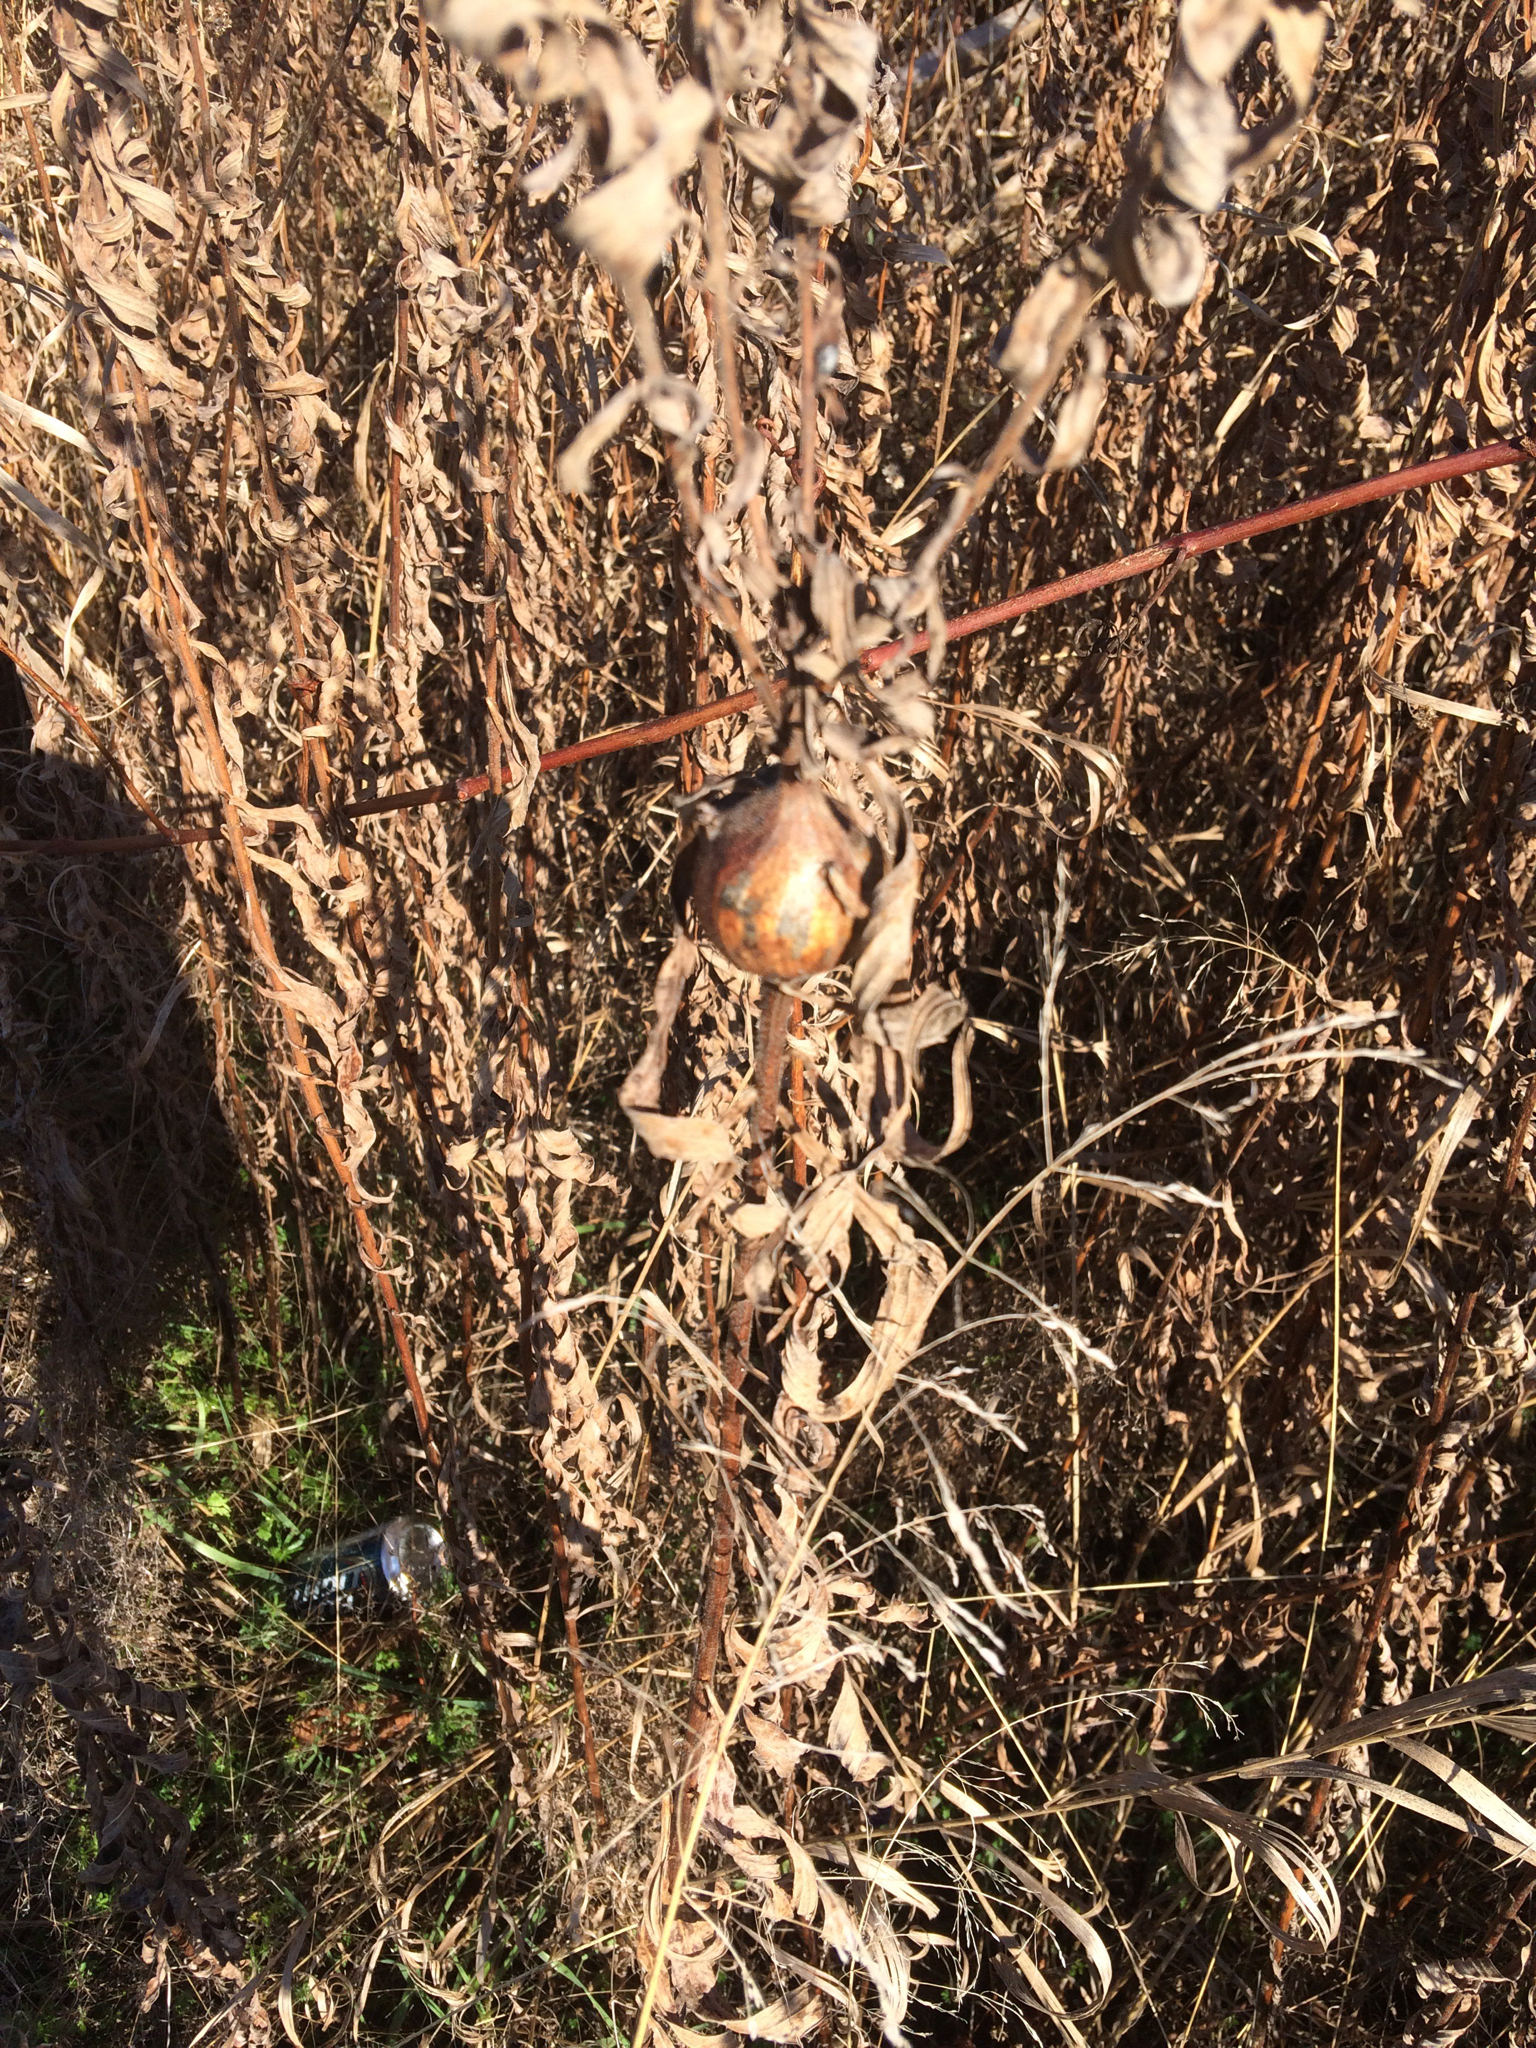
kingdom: Animalia
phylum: Arthropoda
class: Insecta
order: Diptera
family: Tephritidae
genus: Eurosta
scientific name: Eurosta solidaginis
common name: Goldenrod gall fly
